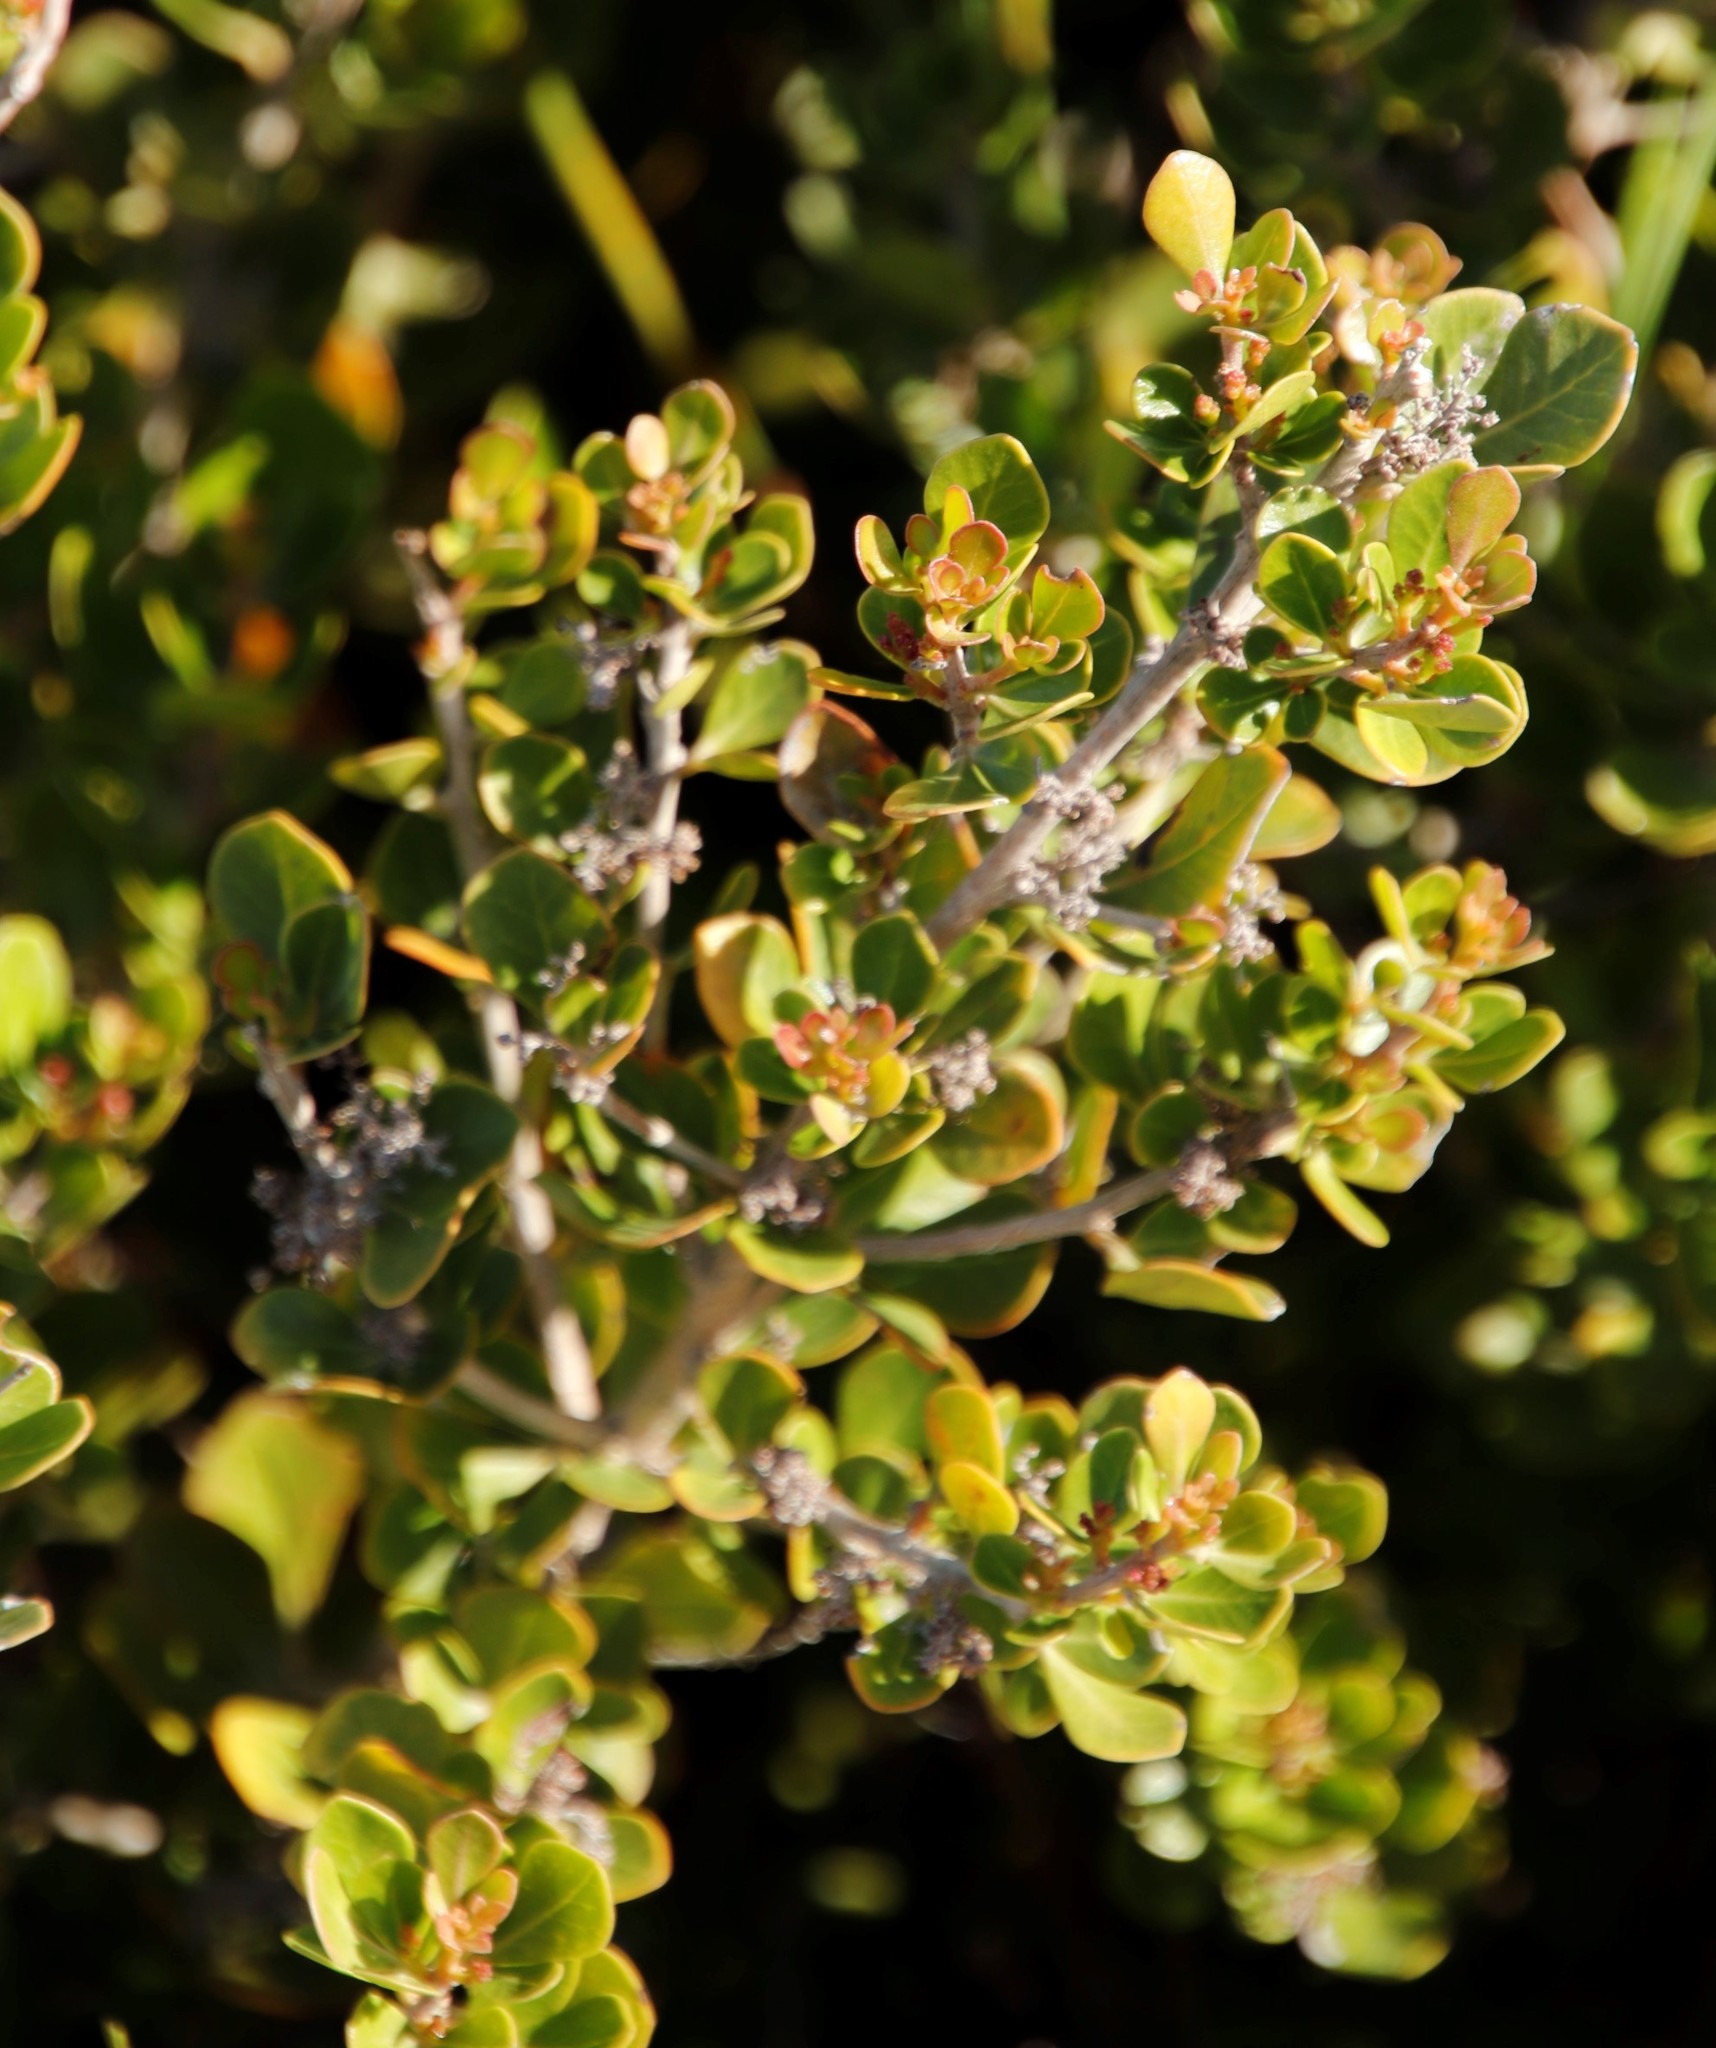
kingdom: Plantae
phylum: Tracheophyta
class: Magnoliopsida
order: Sapindales
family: Anacardiaceae
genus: Searsia
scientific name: Searsia lucida
